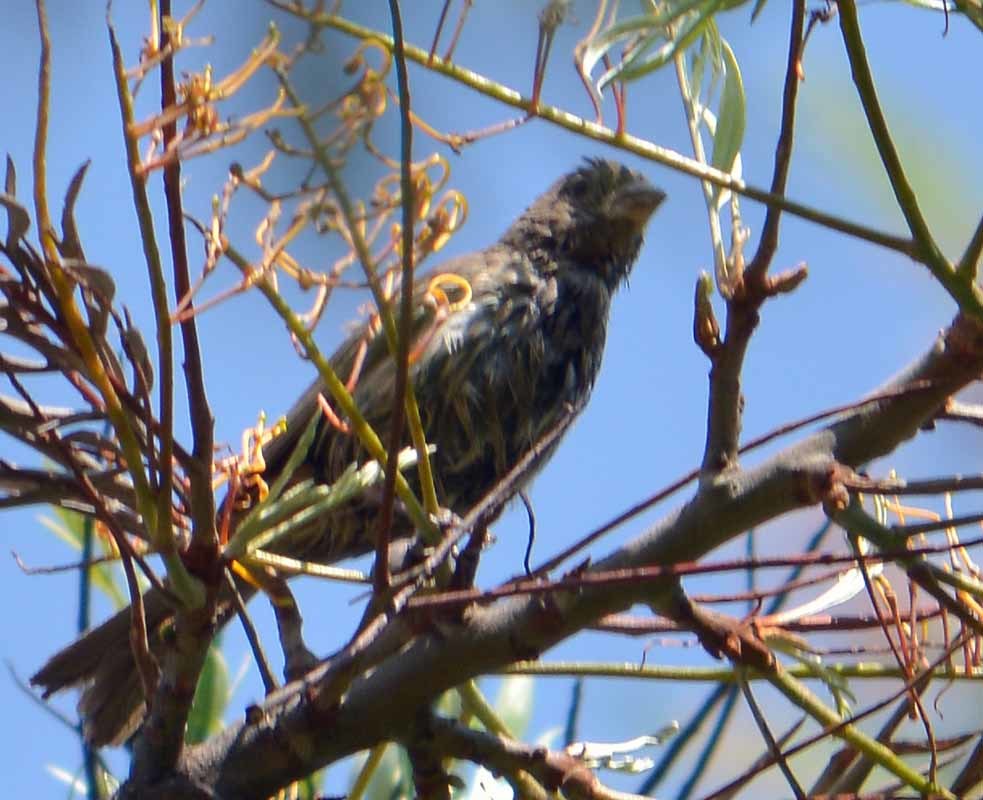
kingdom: Animalia
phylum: Chordata
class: Aves
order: Passeriformes
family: Fringillidae
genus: Haemorhous
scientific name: Haemorhous mexicanus
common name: House finch
